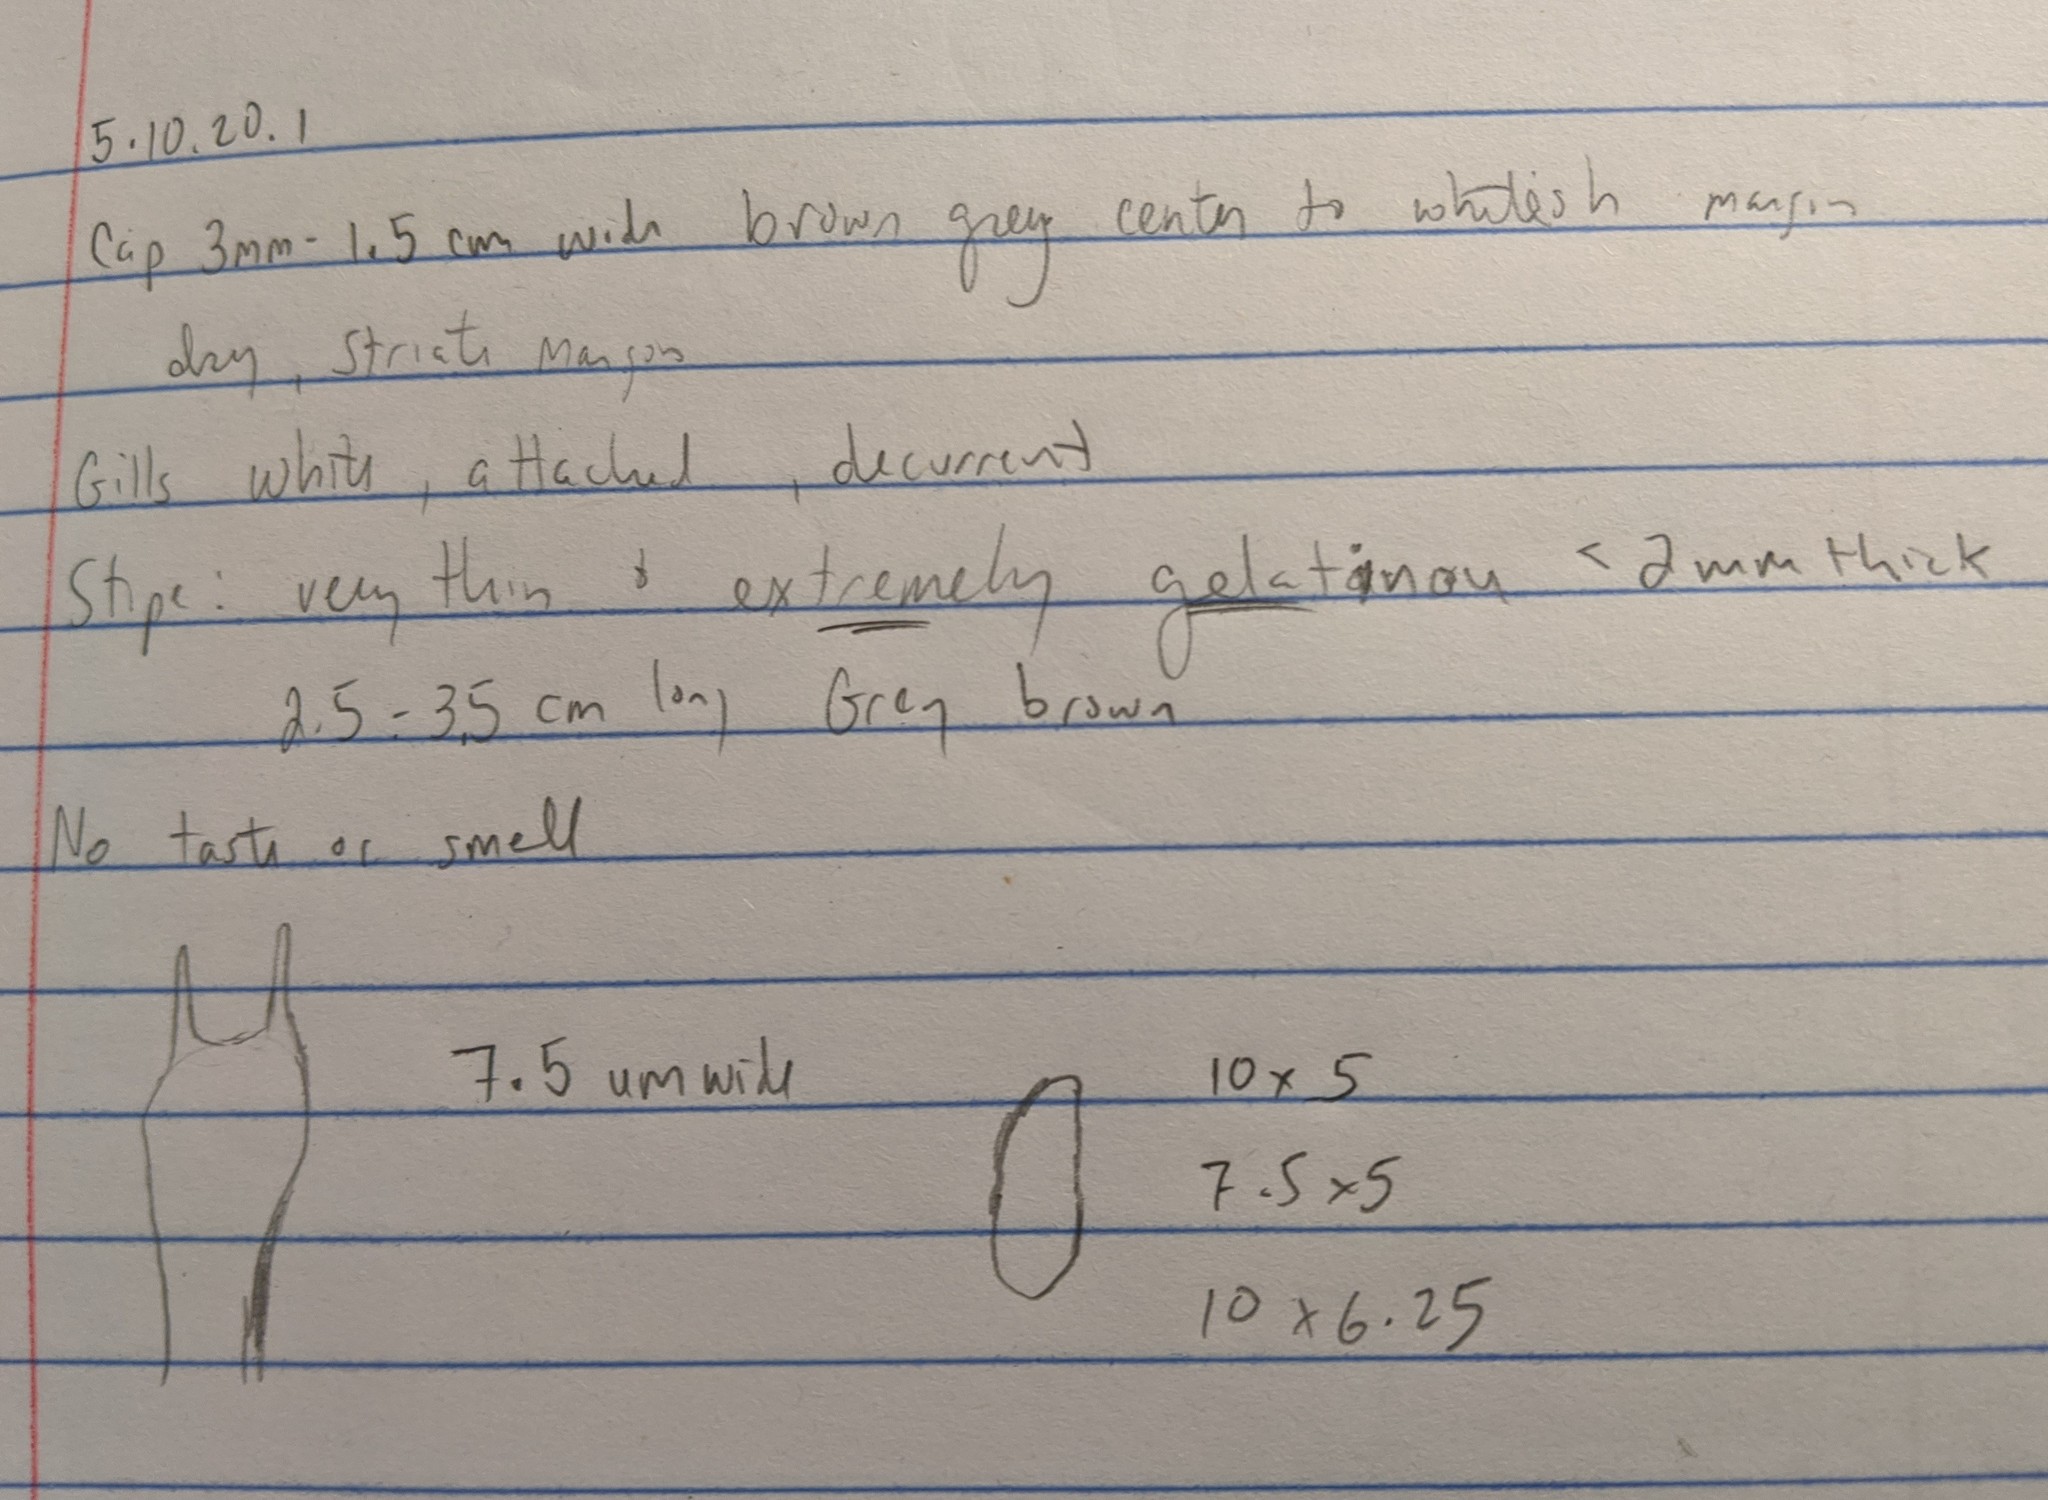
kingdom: Fungi
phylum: Basidiomycota
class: Agaricomycetes
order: Agaricales
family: Mycenaceae
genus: Roridomyces
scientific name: Roridomyces roridus
